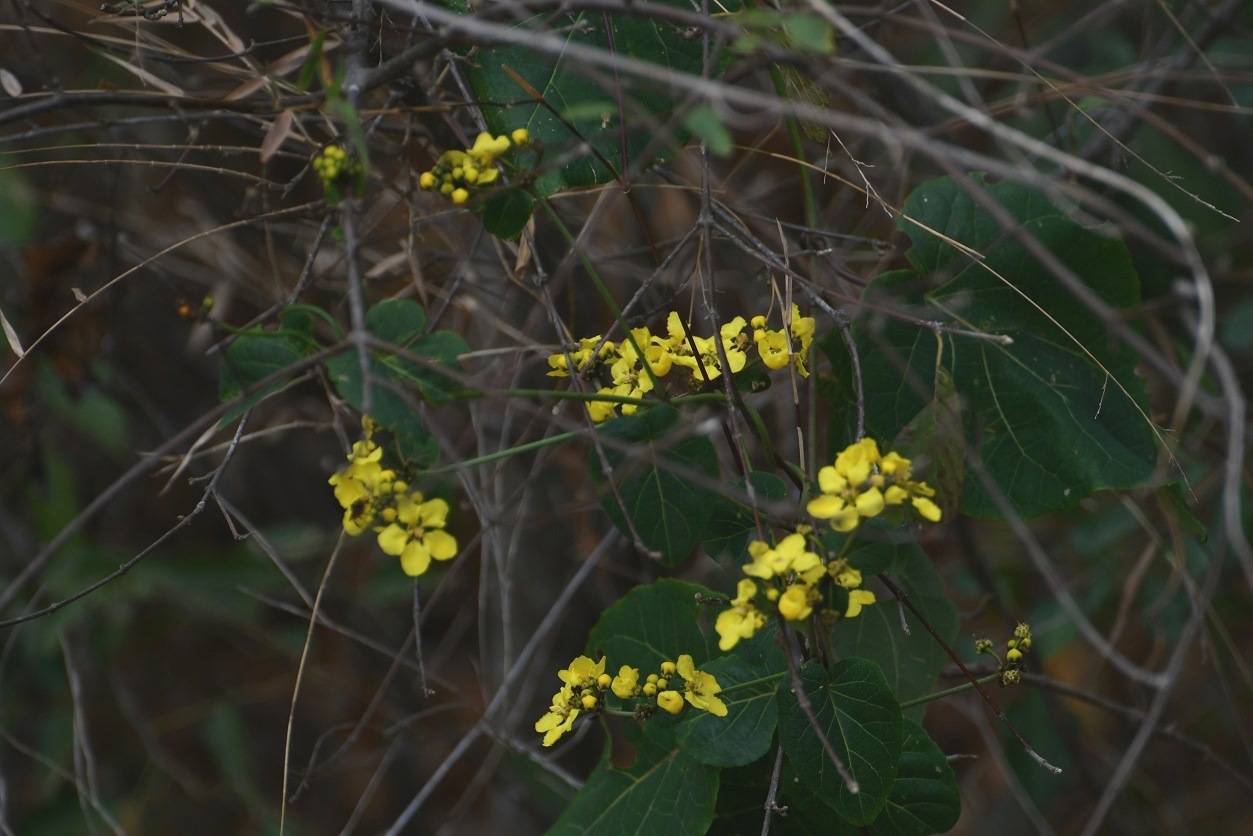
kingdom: Plantae
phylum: Tracheophyta
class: Magnoliopsida
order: Malpighiales
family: Malpighiaceae
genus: Stigmaphyllon
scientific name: Stigmaphyllon selerianum
